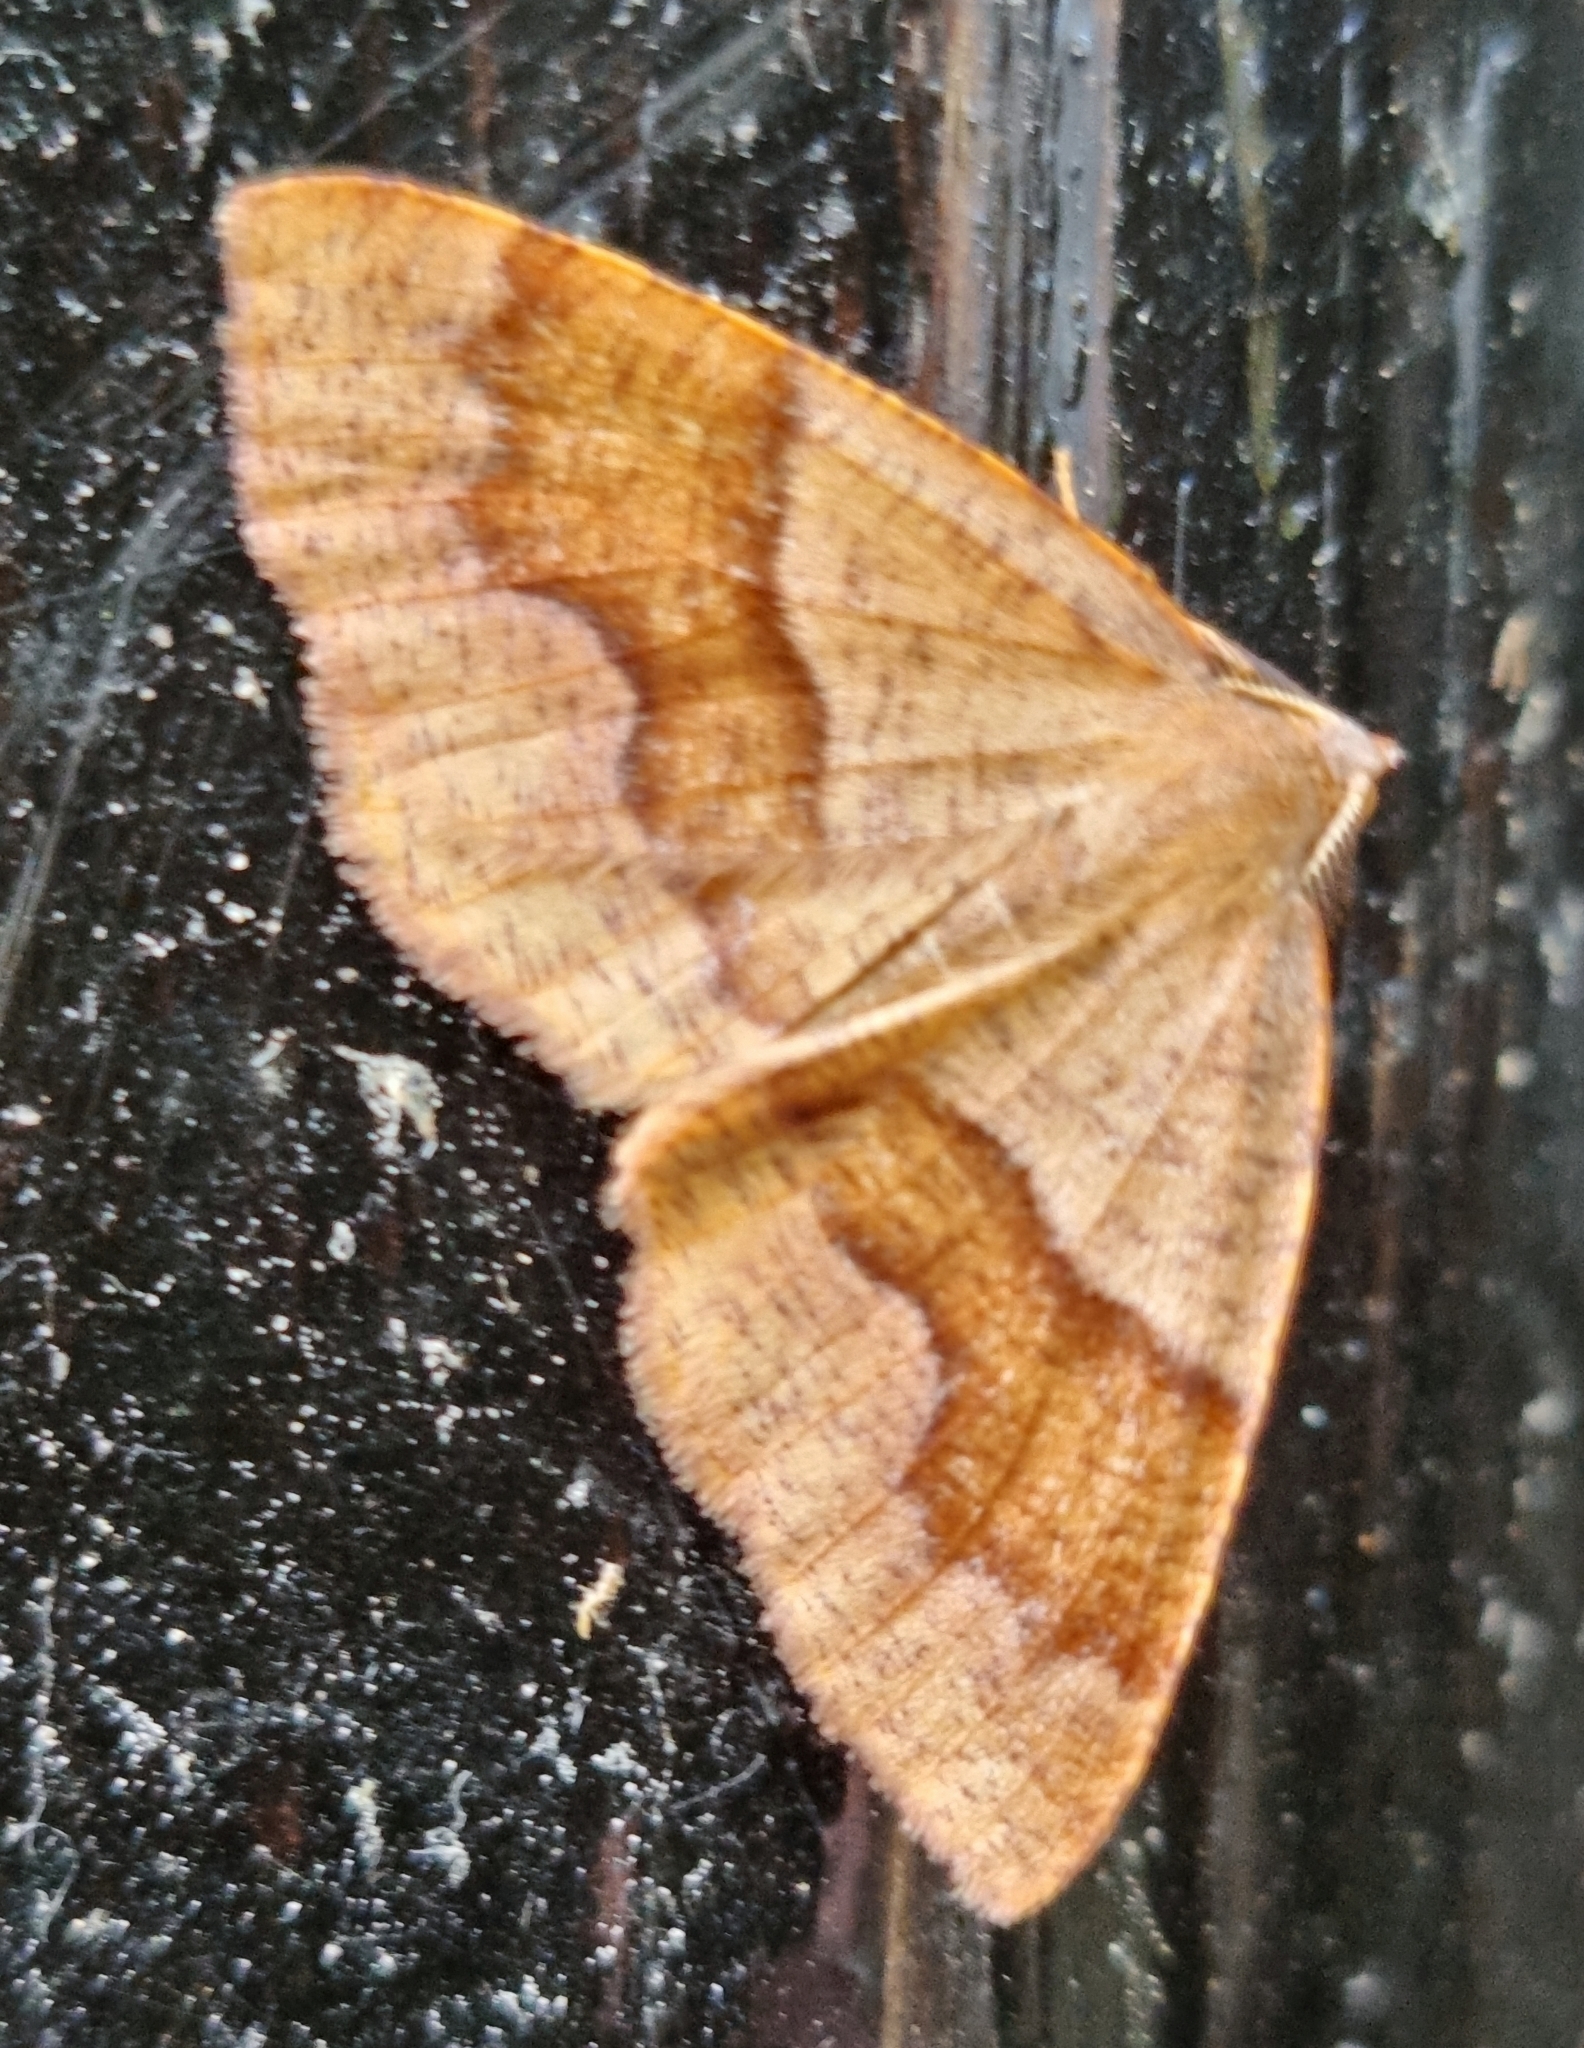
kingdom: Animalia
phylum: Arthropoda
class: Insecta
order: Lepidoptera
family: Geometridae
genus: Plagodis
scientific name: Plagodis pulveraria
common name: Barred umber
